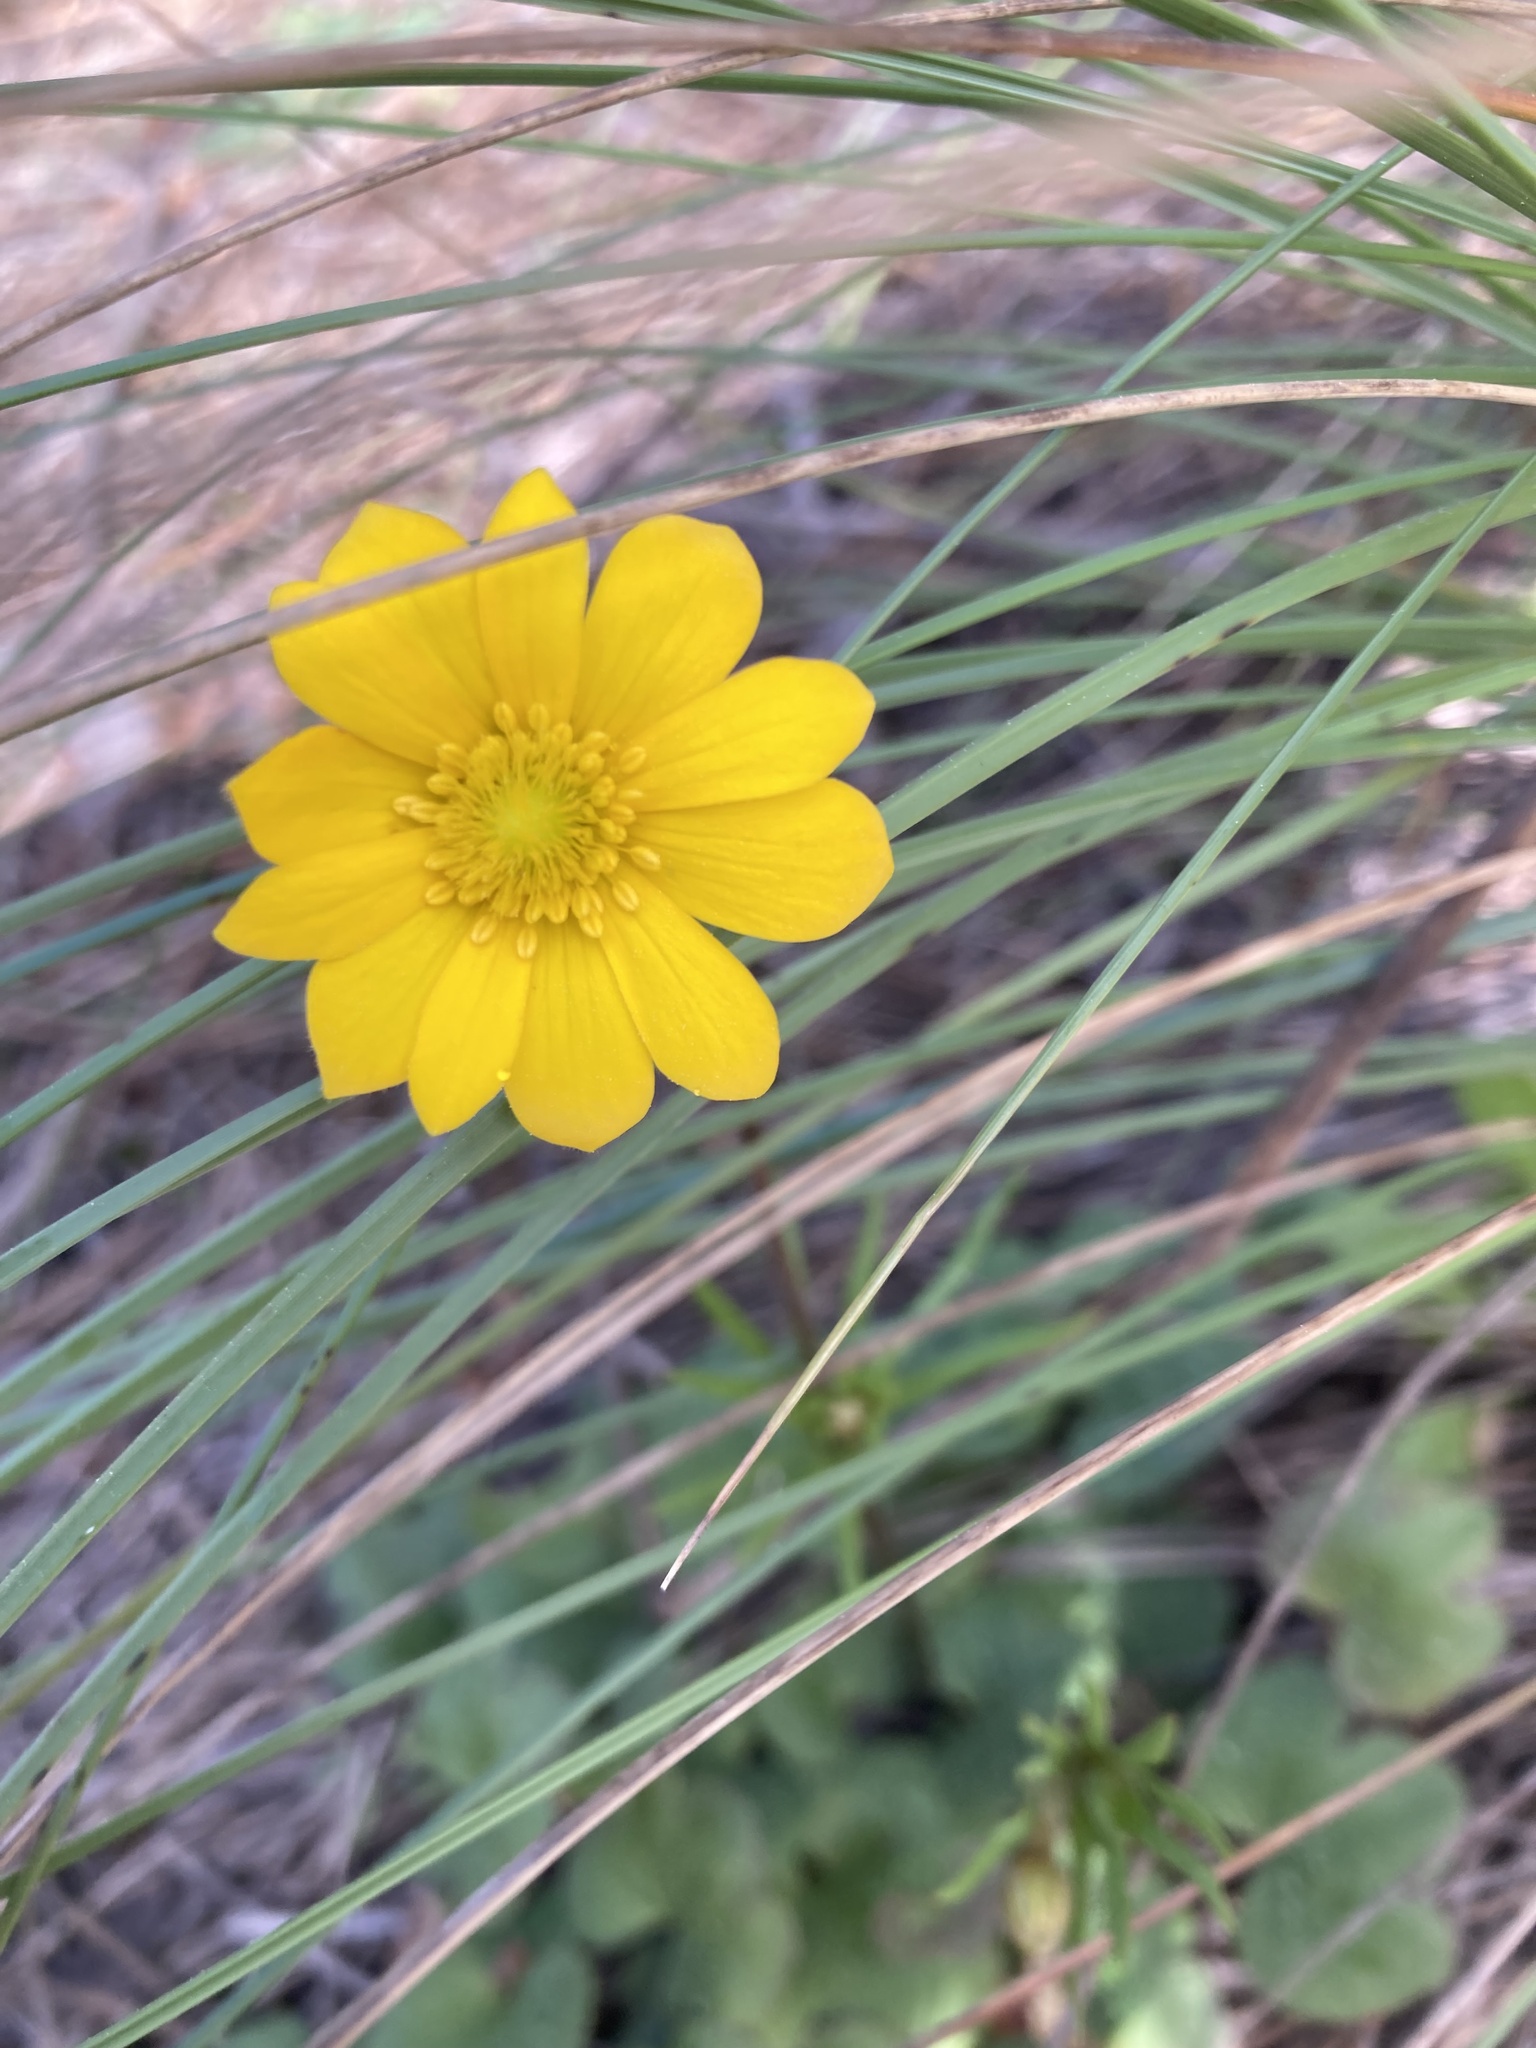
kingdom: Plantae
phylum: Tracheophyta
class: Magnoliopsida
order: Ranunculales
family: Ranunculaceae
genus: Anemone
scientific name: Anemone palmata
